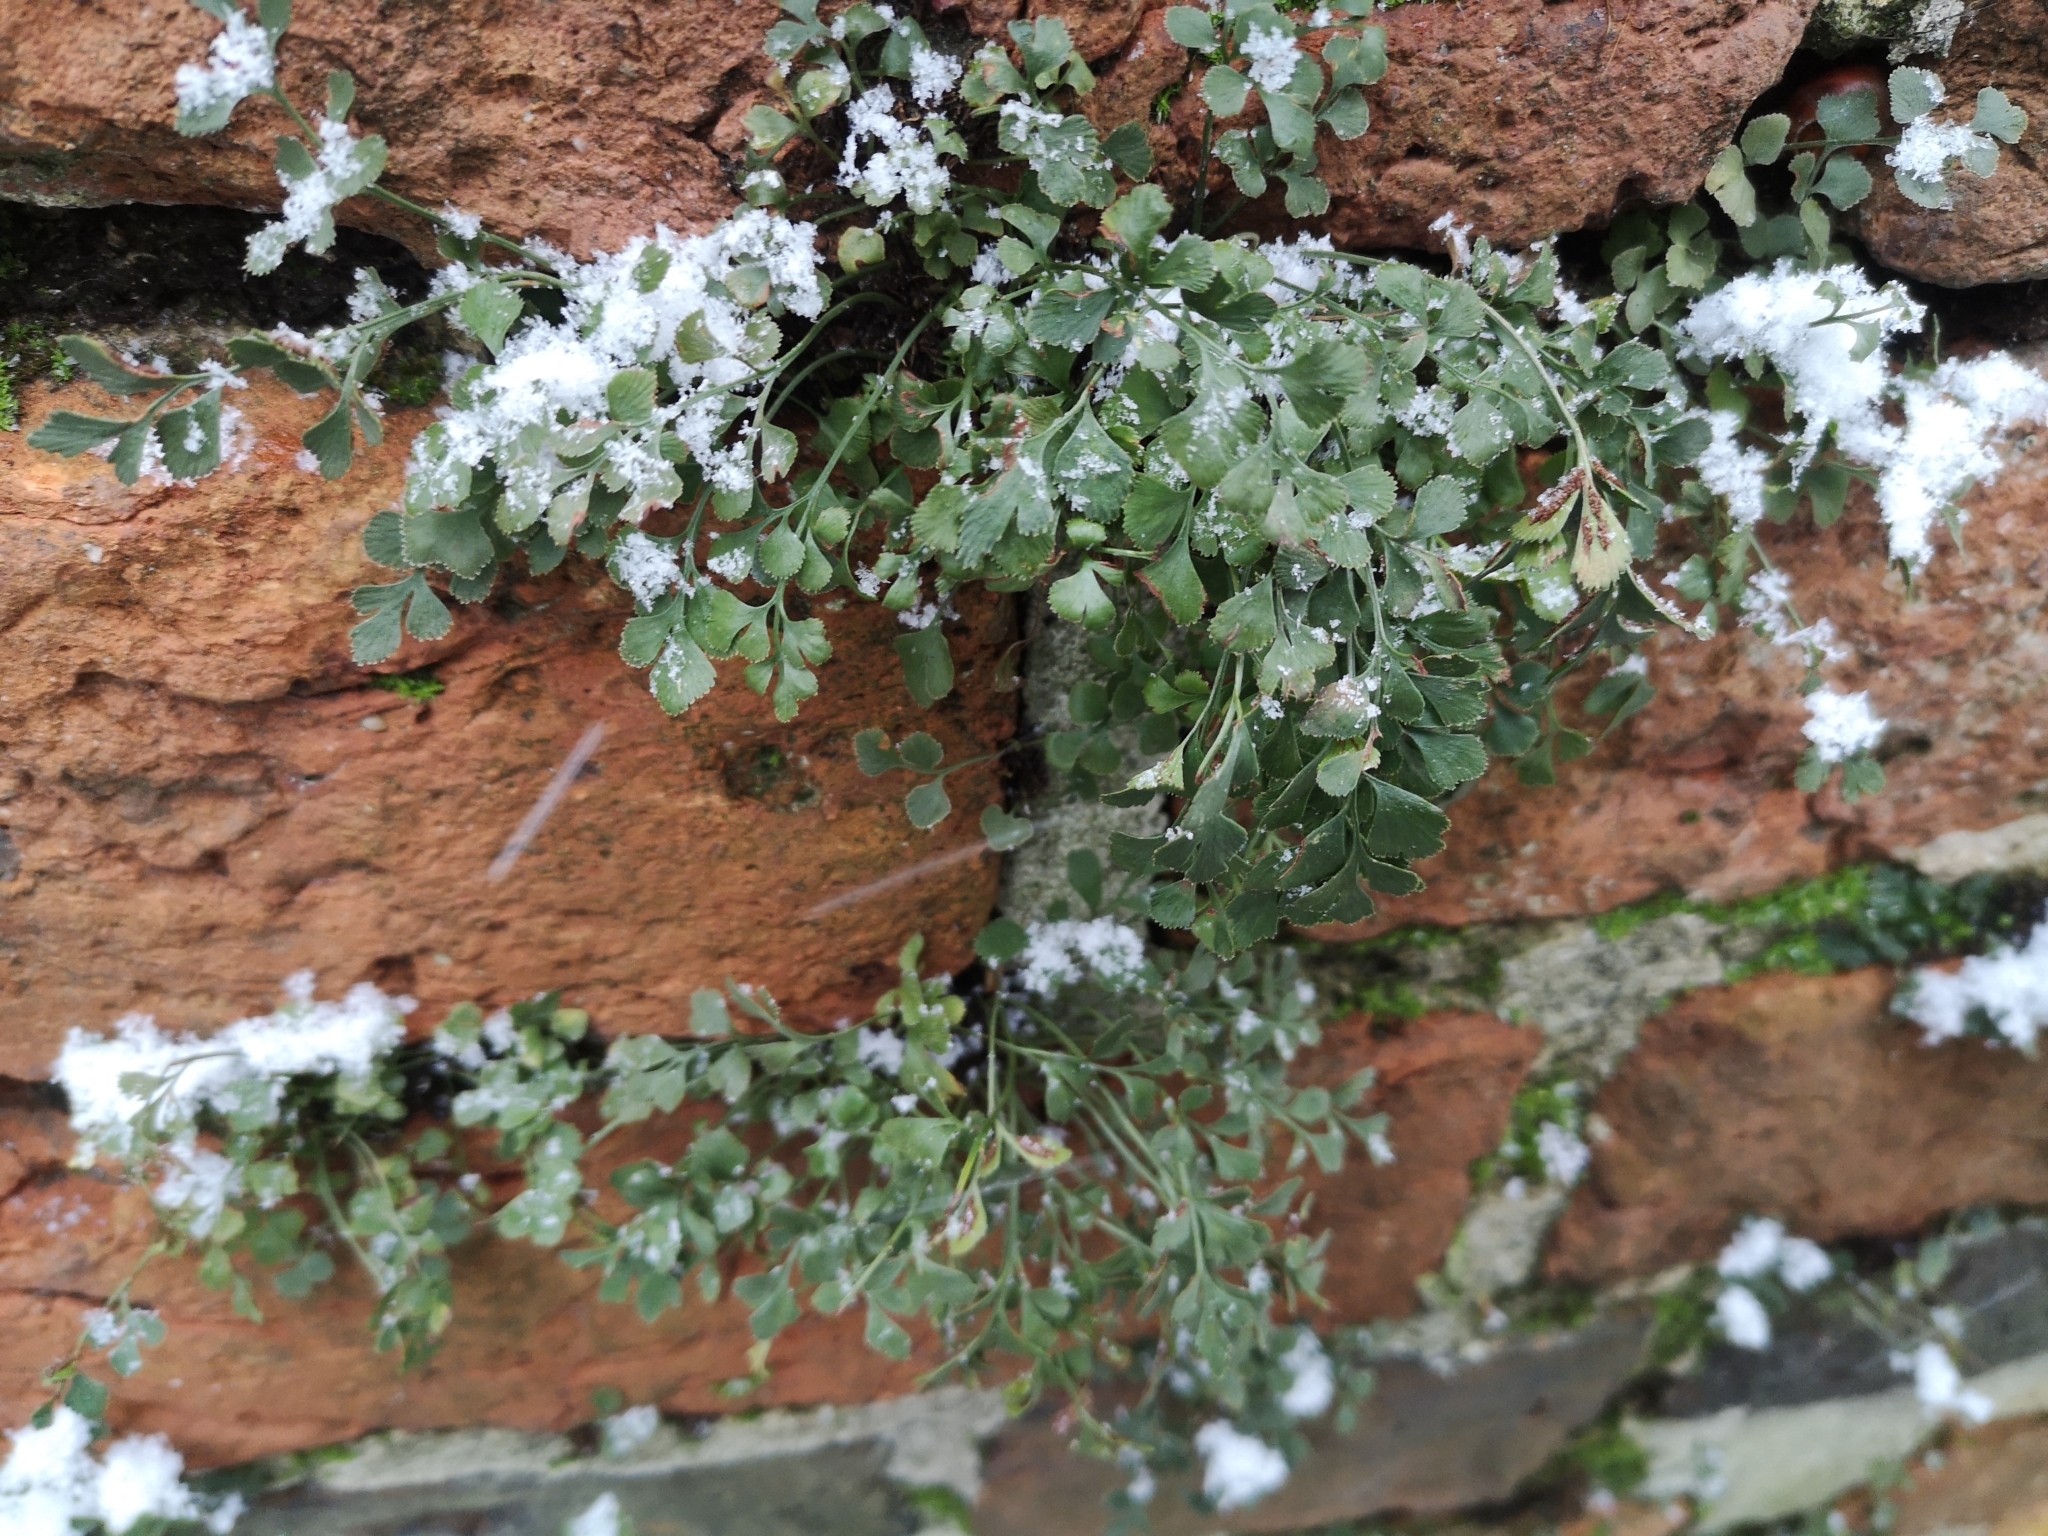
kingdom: Plantae
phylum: Tracheophyta
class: Polypodiopsida
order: Polypodiales
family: Aspleniaceae
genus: Asplenium
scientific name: Asplenium ruta-muraria
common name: Wall-rue
